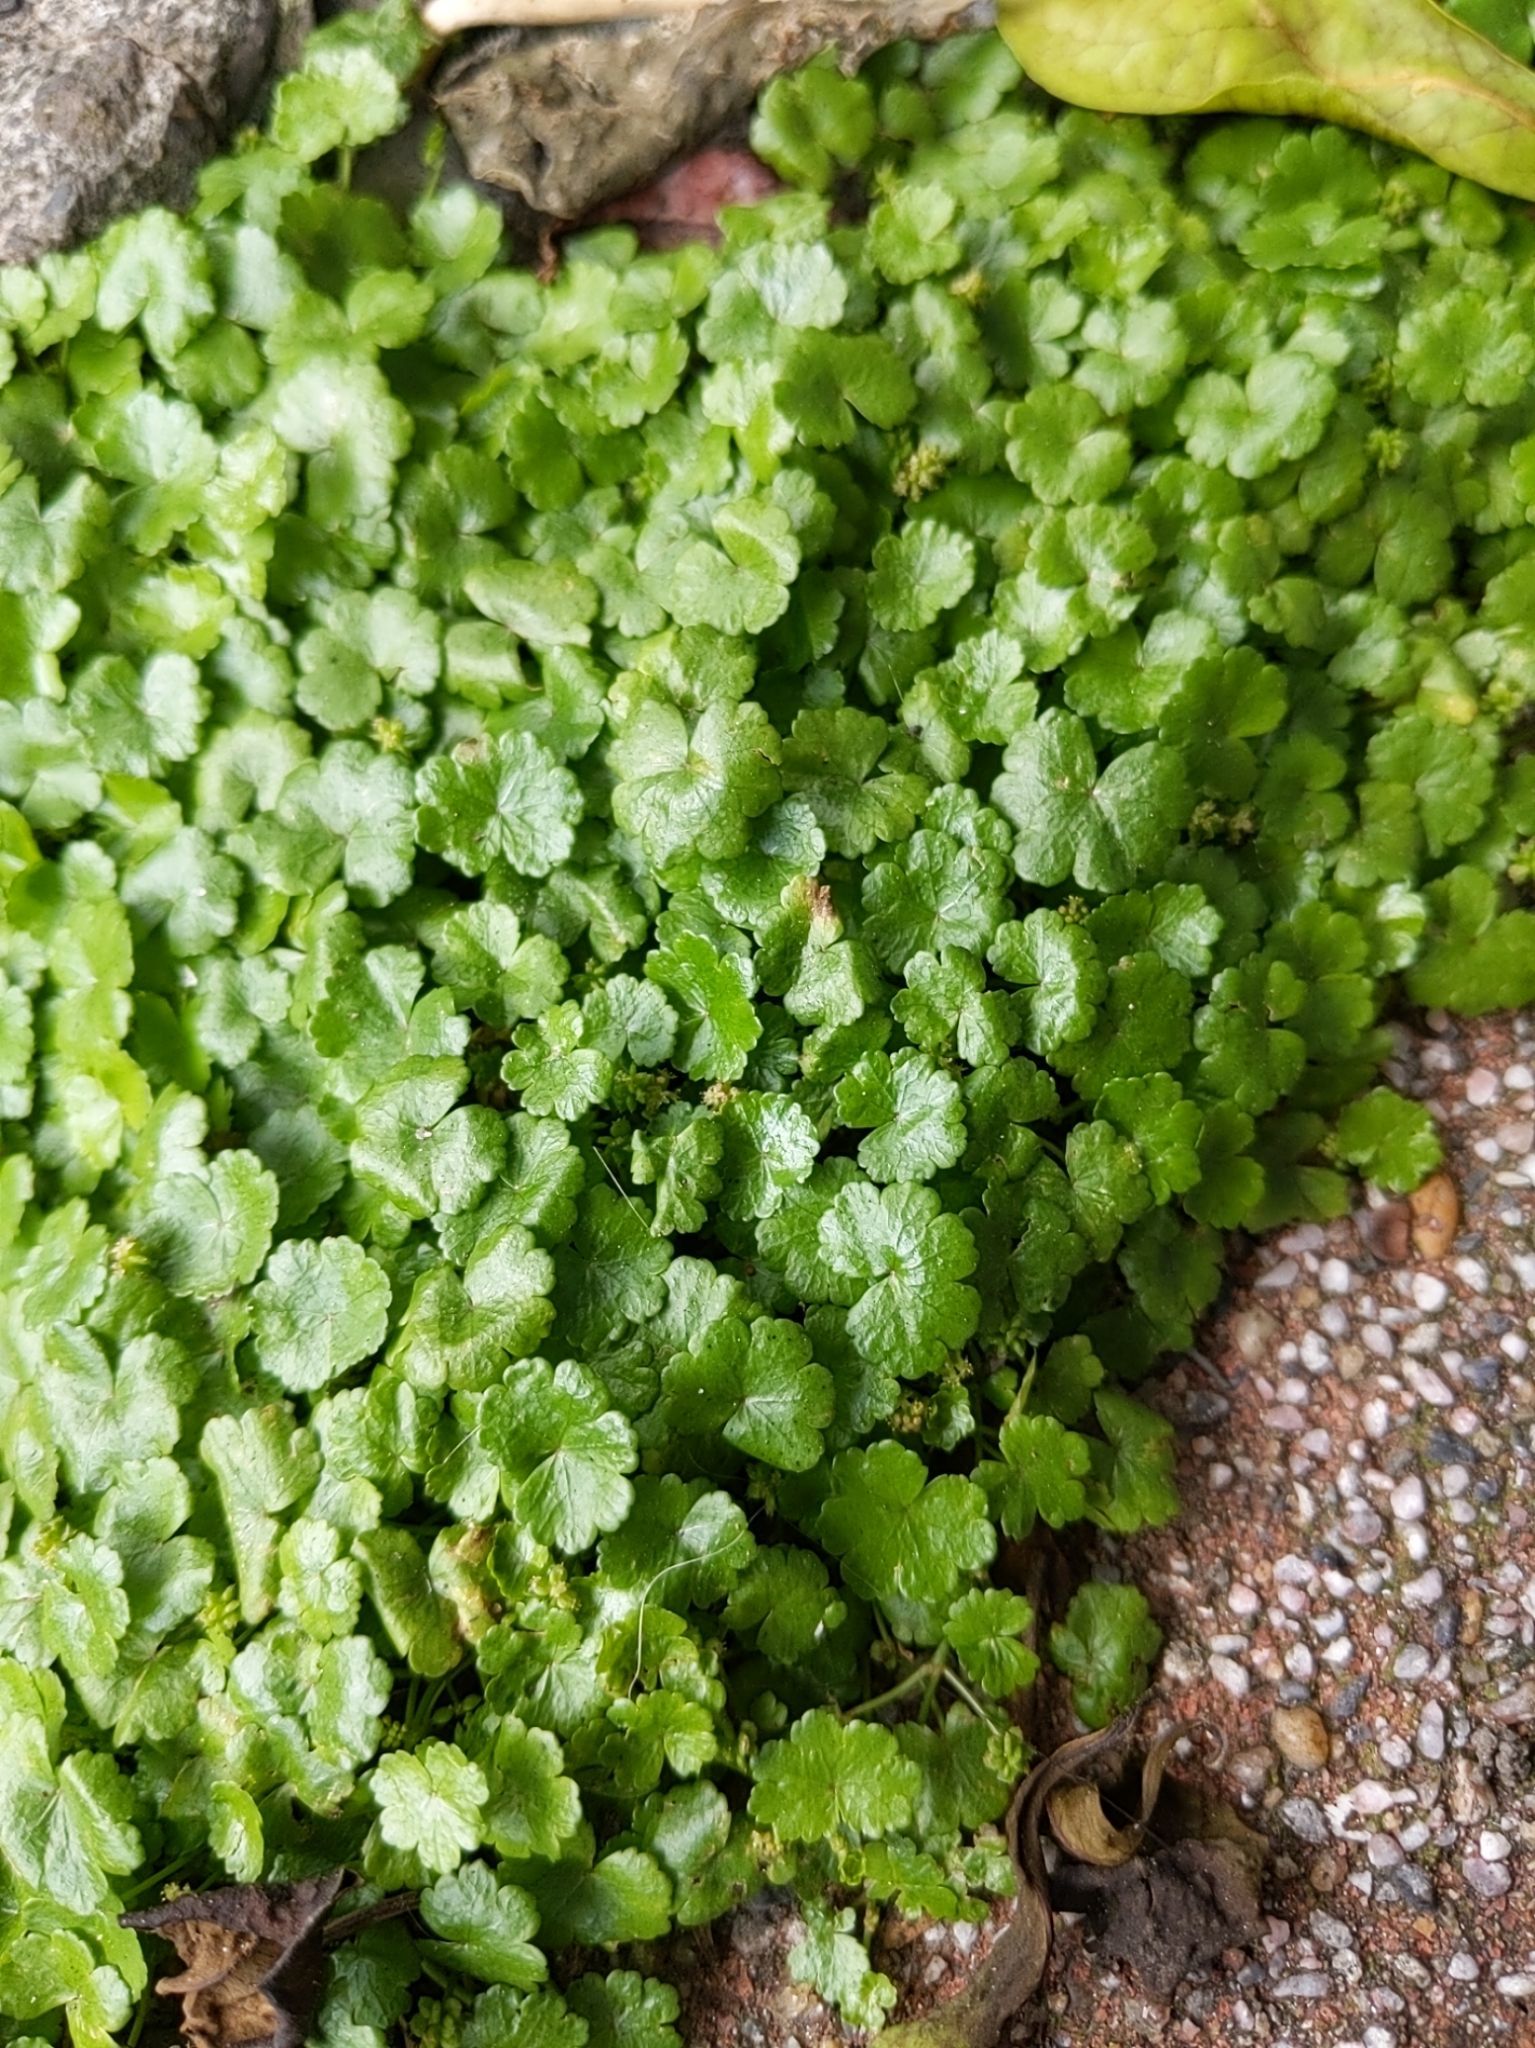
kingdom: Plantae
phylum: Tracheophyta
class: Magnoliopsida
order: Apiales
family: Araliaceae
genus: Hydrocotyle
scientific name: Hydrocotyle sibthorpioides
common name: Lawn marshpennywort
